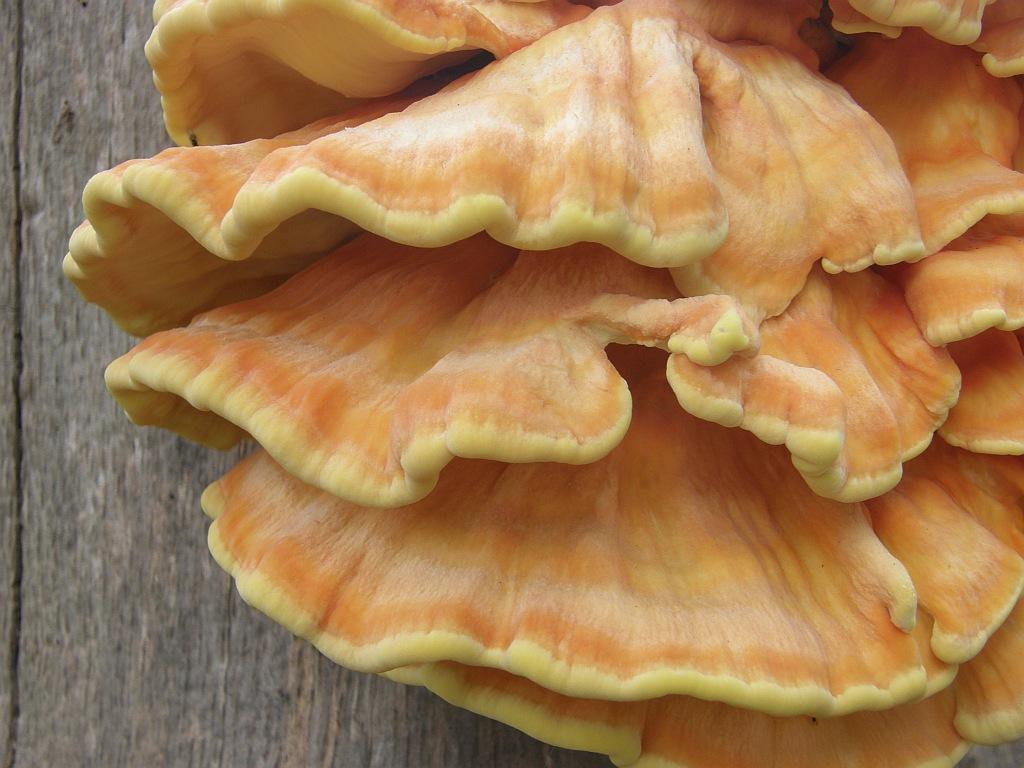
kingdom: Fungi
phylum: Basidiomycota
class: Agaricomycetes
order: Polyporales
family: Laetiporaceae
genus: Laetiporus
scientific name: Laetiporus sulphureus
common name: Chicken of the woods
